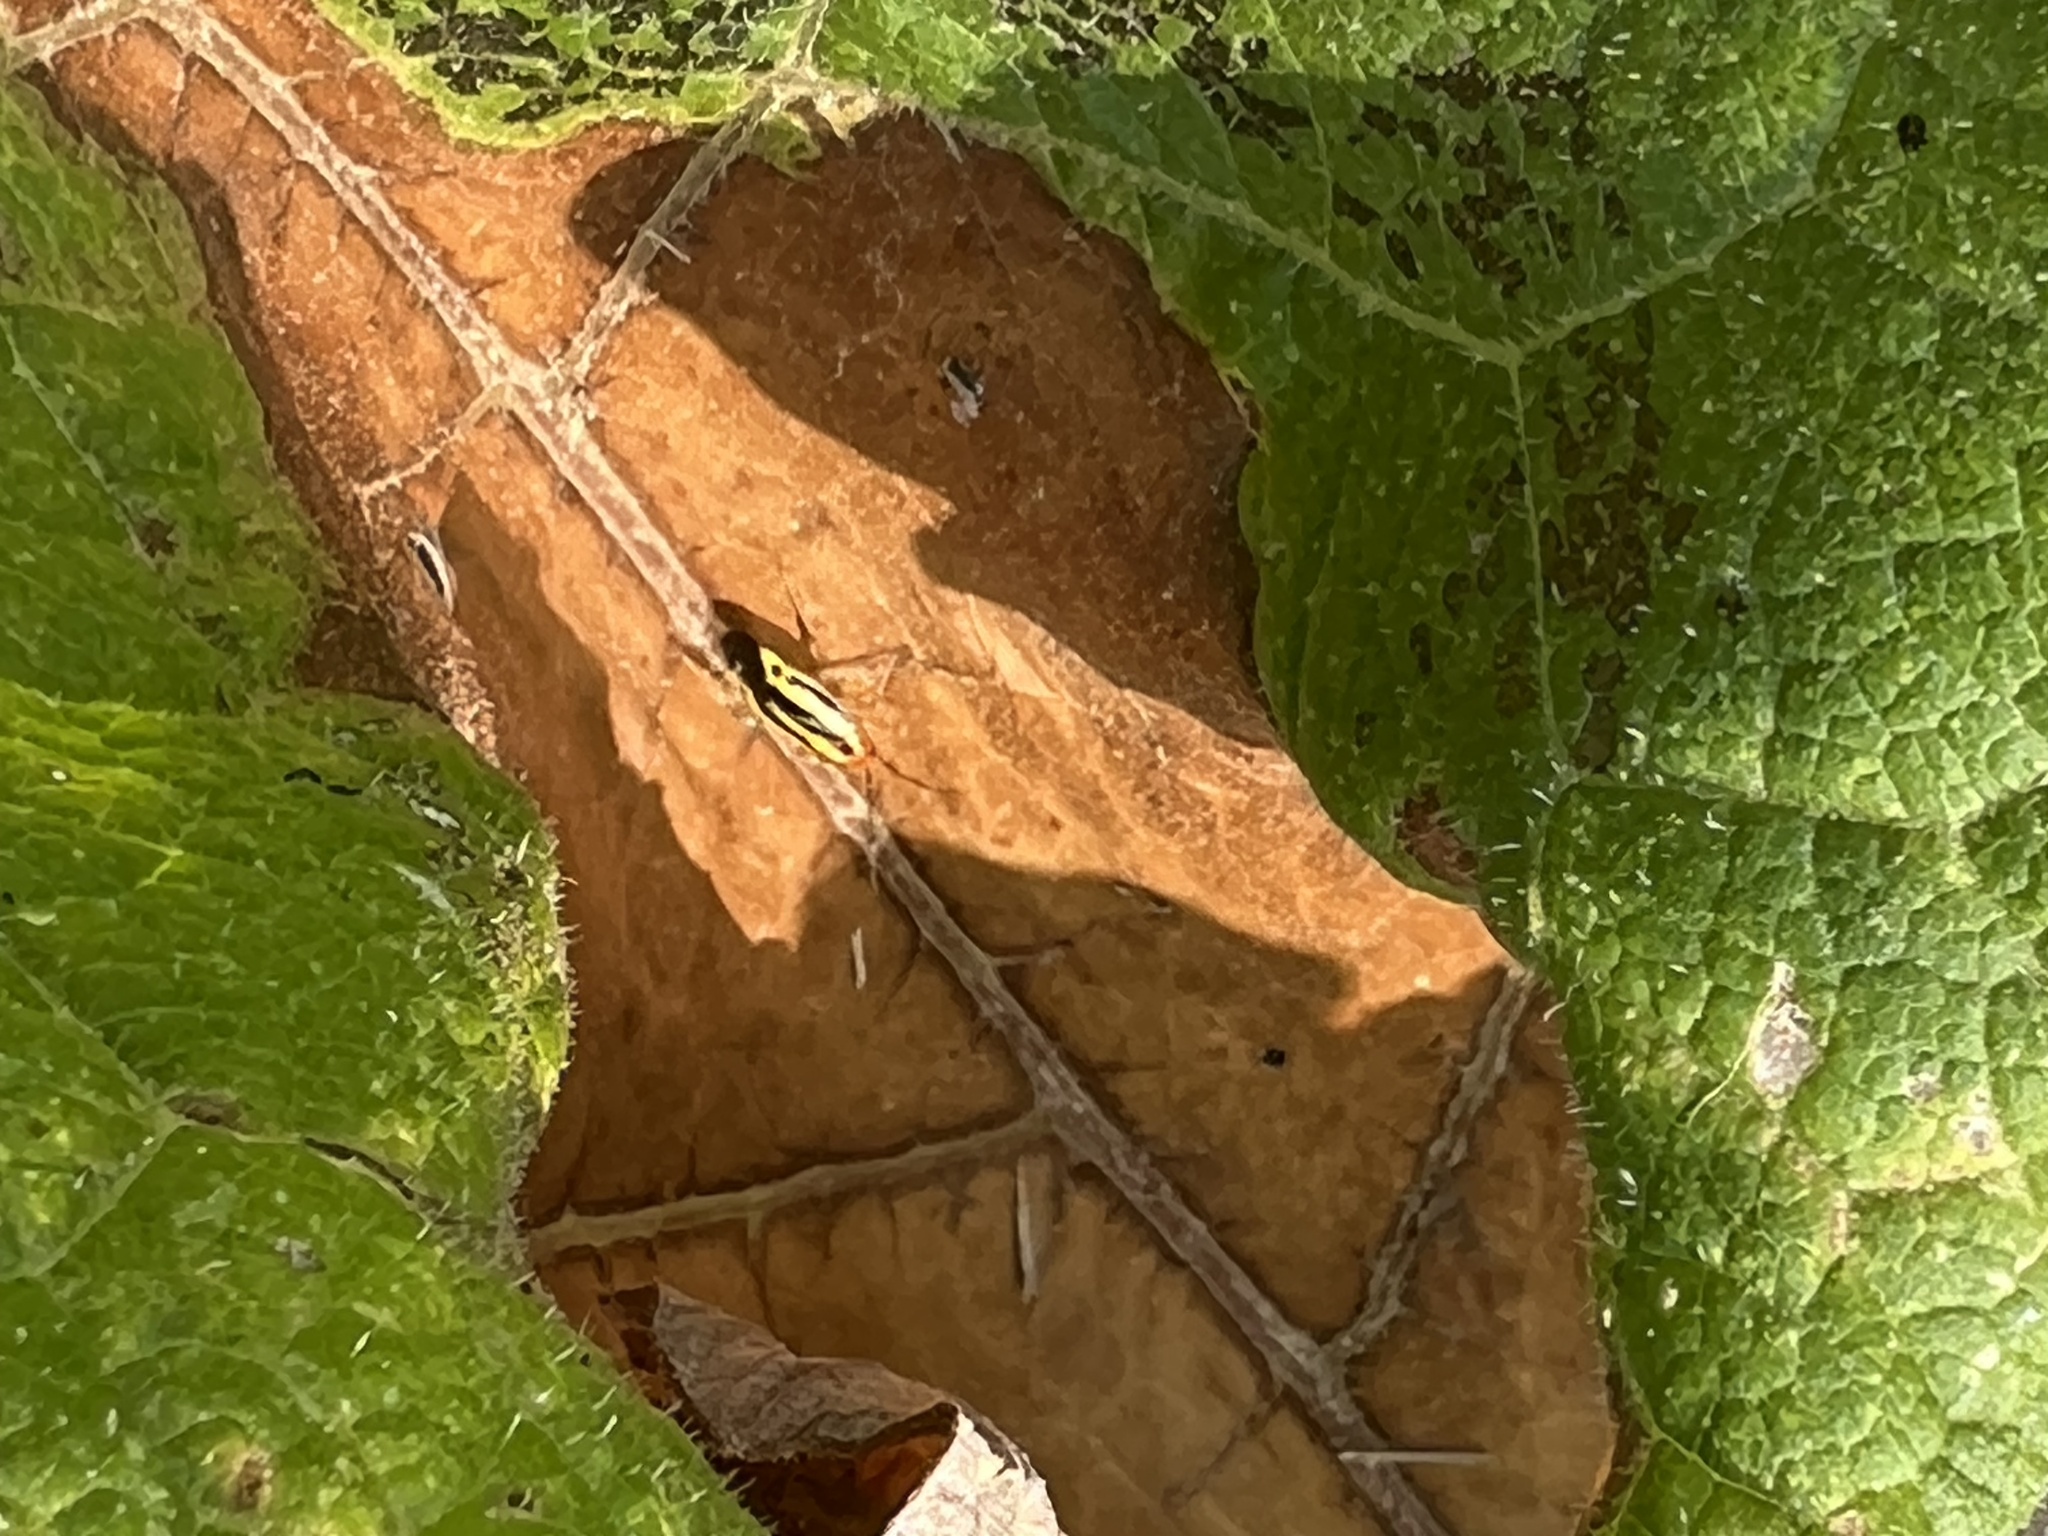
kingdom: Animalia
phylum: Arthropoda
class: Insecta
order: Hemiptera
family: Miridae
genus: Poecilocapsus
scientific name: Poecilocapsus lineatus
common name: Four-lined plant bug
